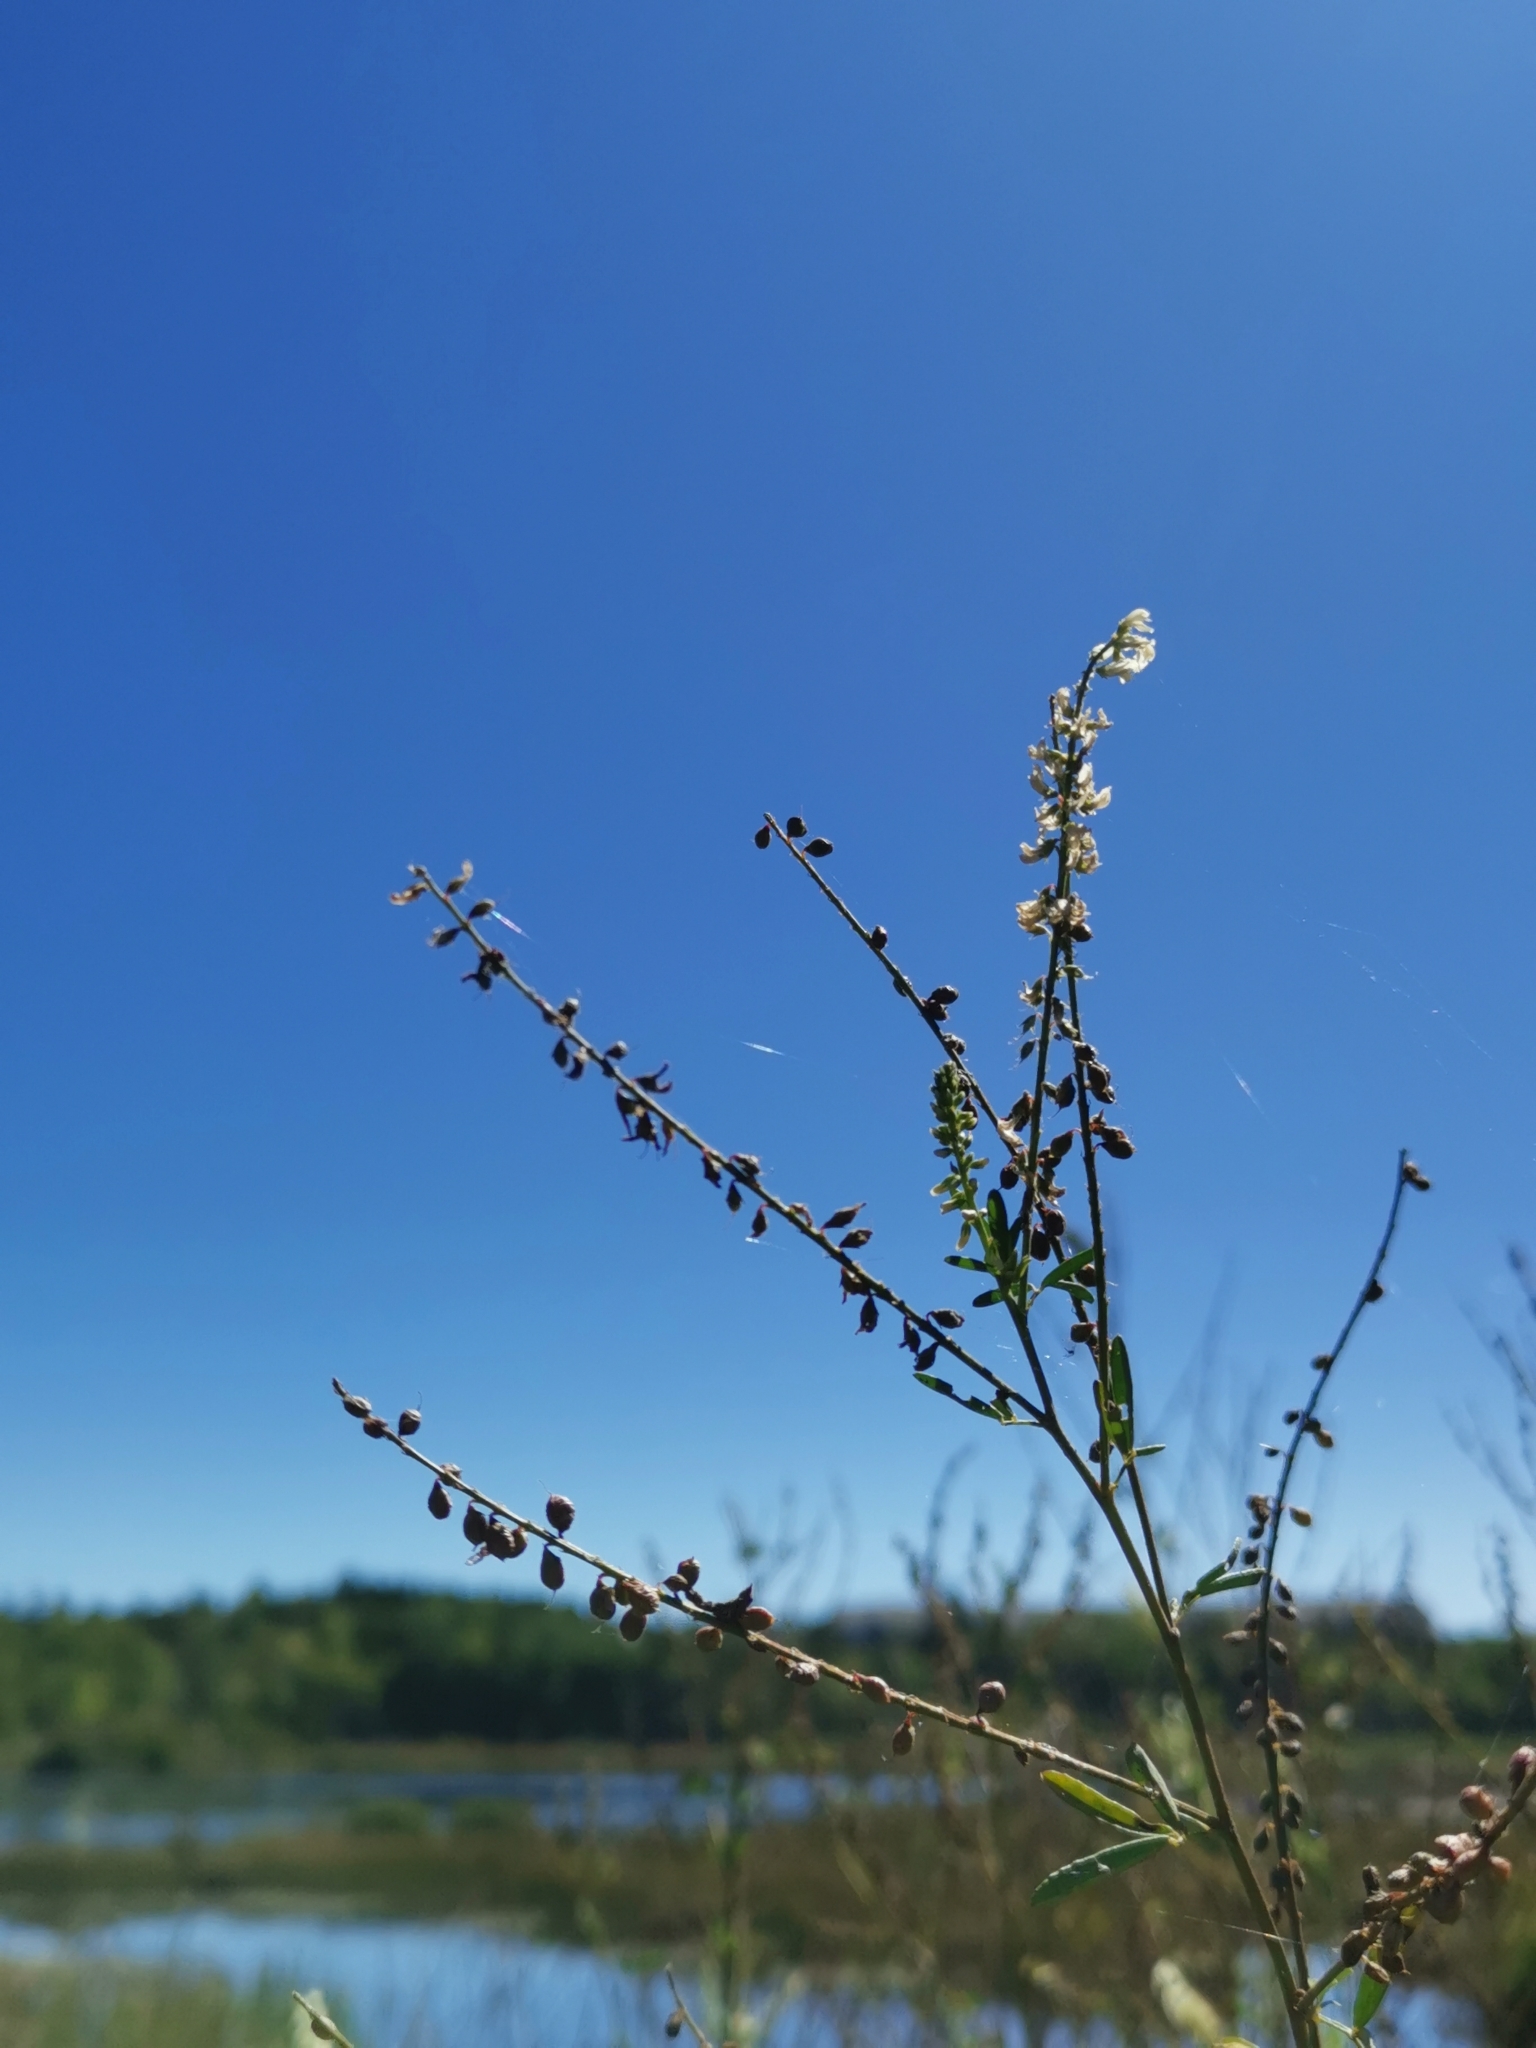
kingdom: Plantae
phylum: Tracheophyta
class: Magnoliopsida
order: Fabales
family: Fabaceae
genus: Melilotus
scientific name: Melilotus albus
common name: White melilot
